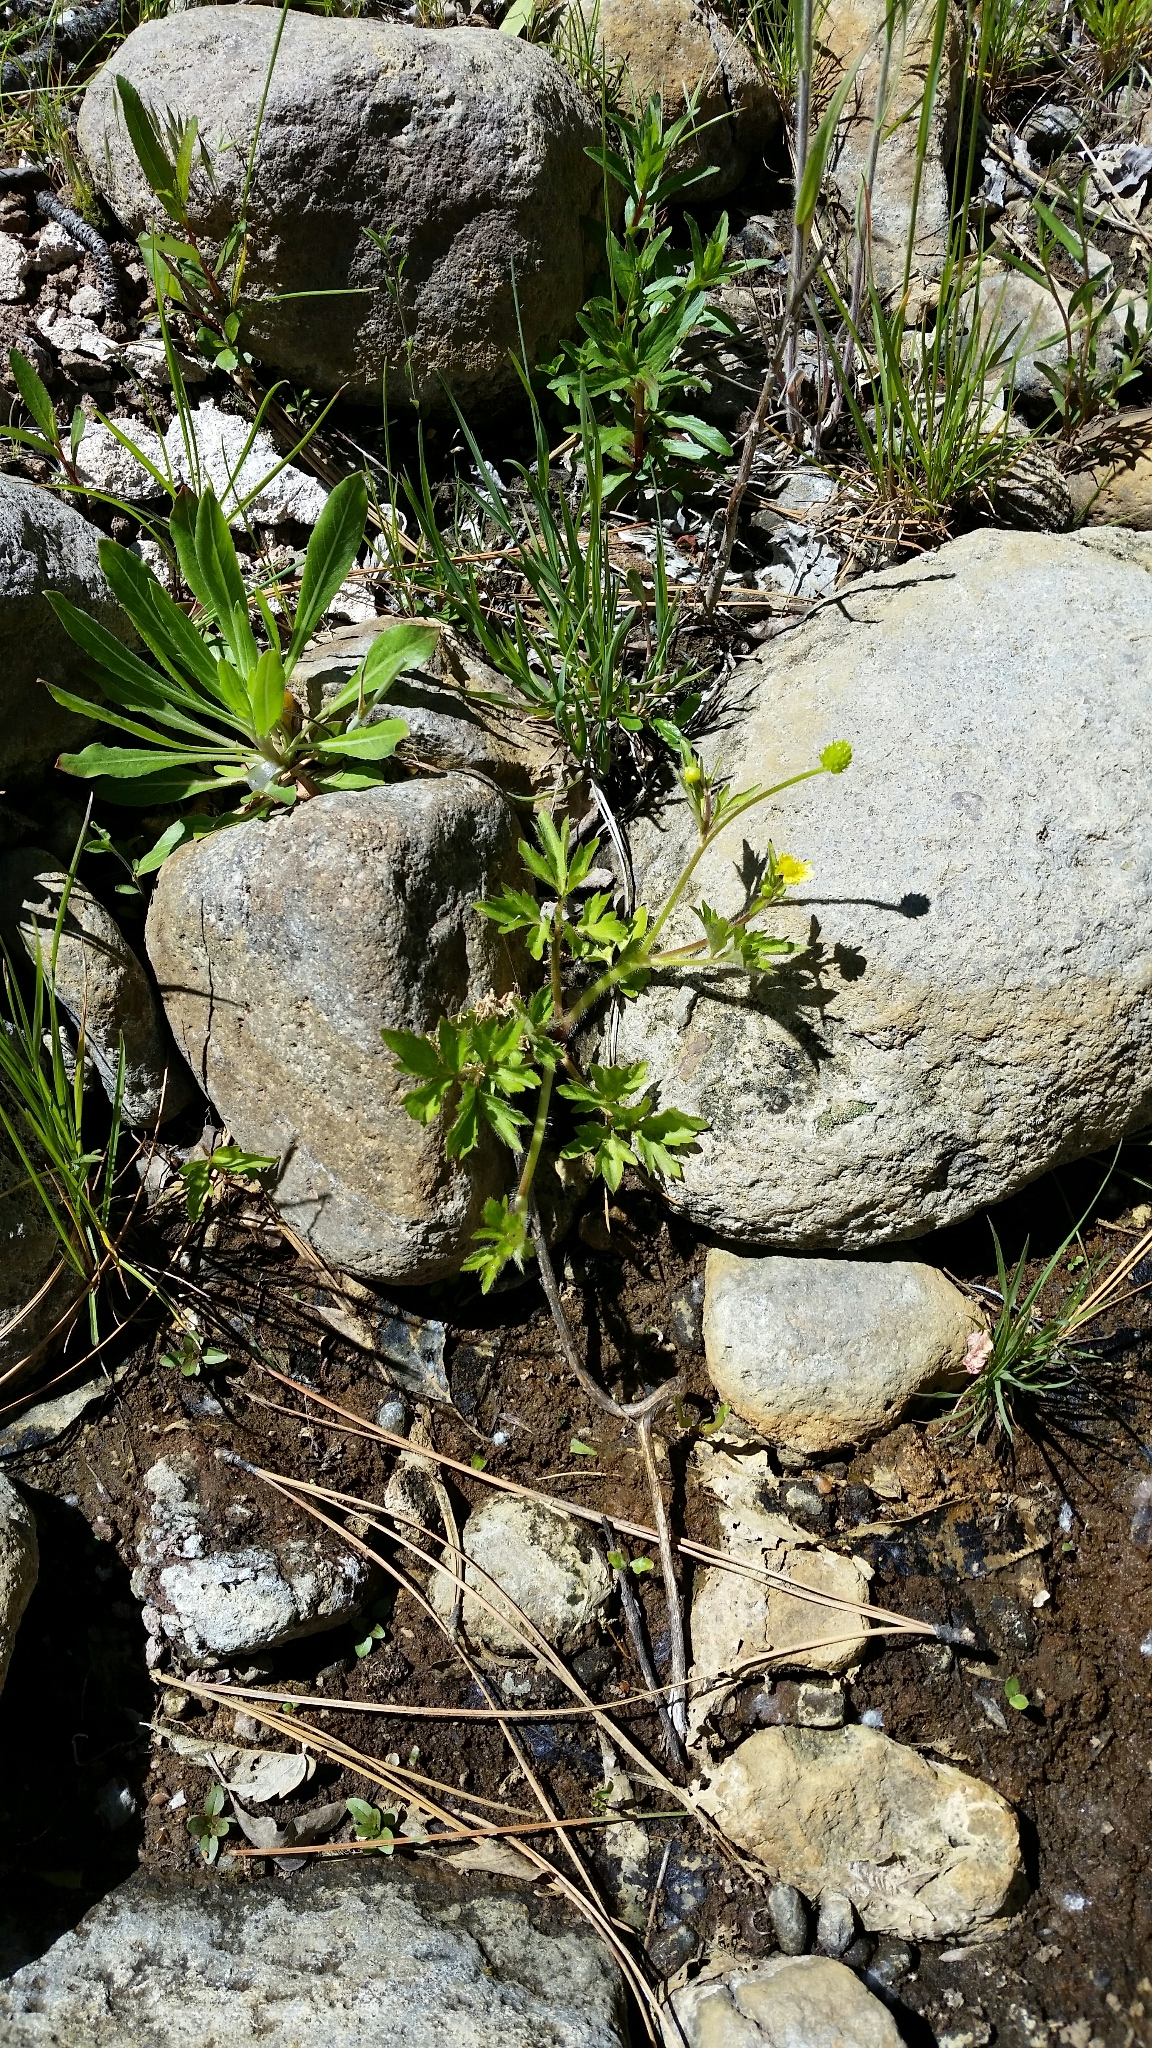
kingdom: Plantae
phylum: Tracheophyta
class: Magnoliopsida
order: Ranunculales
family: Ranunculaceae
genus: Ranunculus
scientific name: Ranunculus macounii
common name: Macoun's buttercup
